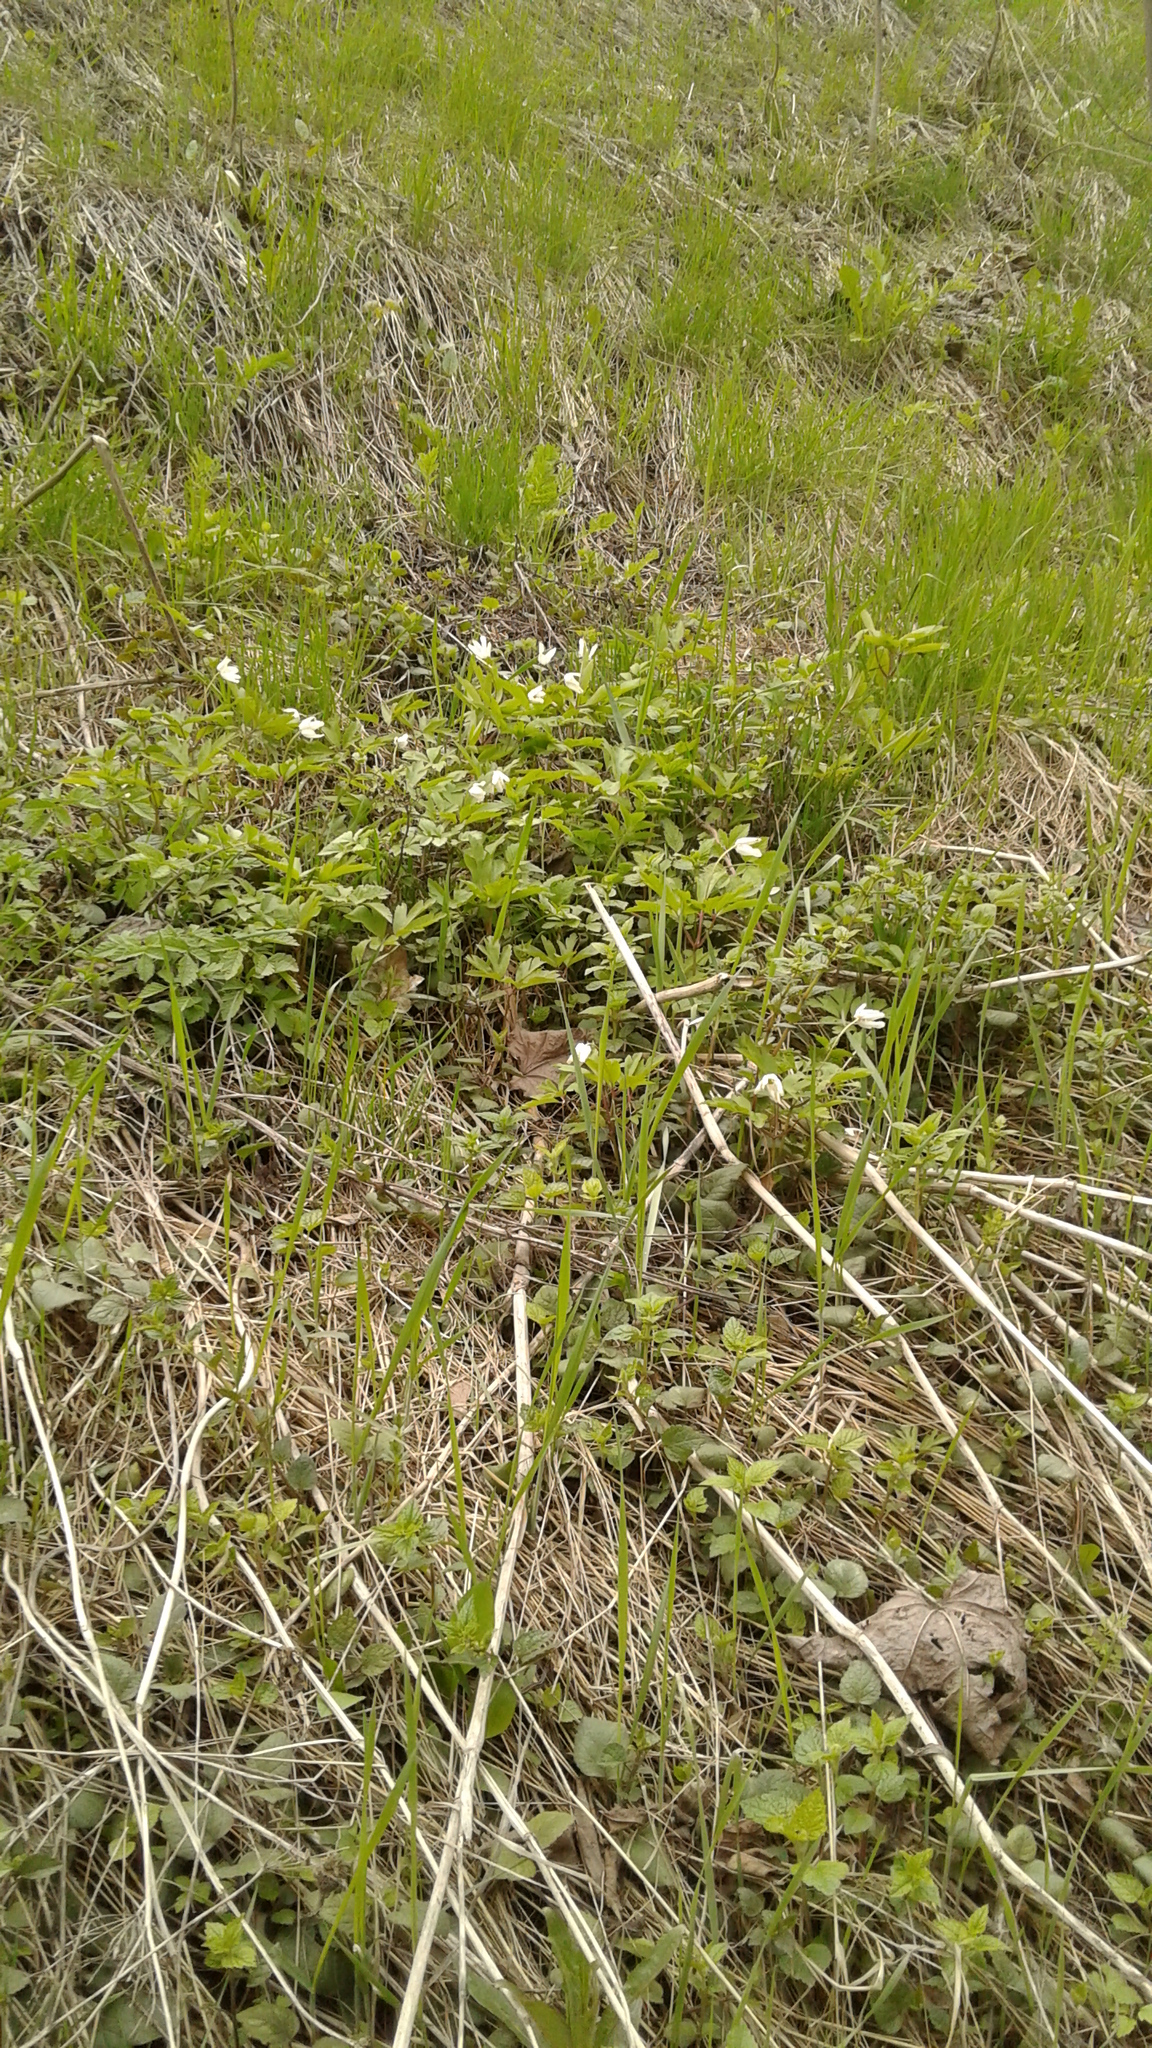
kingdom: Plantae
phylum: Tracheophyta
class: Magnoliopsida
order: Ranunculales
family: Ranunculaceae
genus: Anemone
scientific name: Anemone nemorosa
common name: Wood anemone
